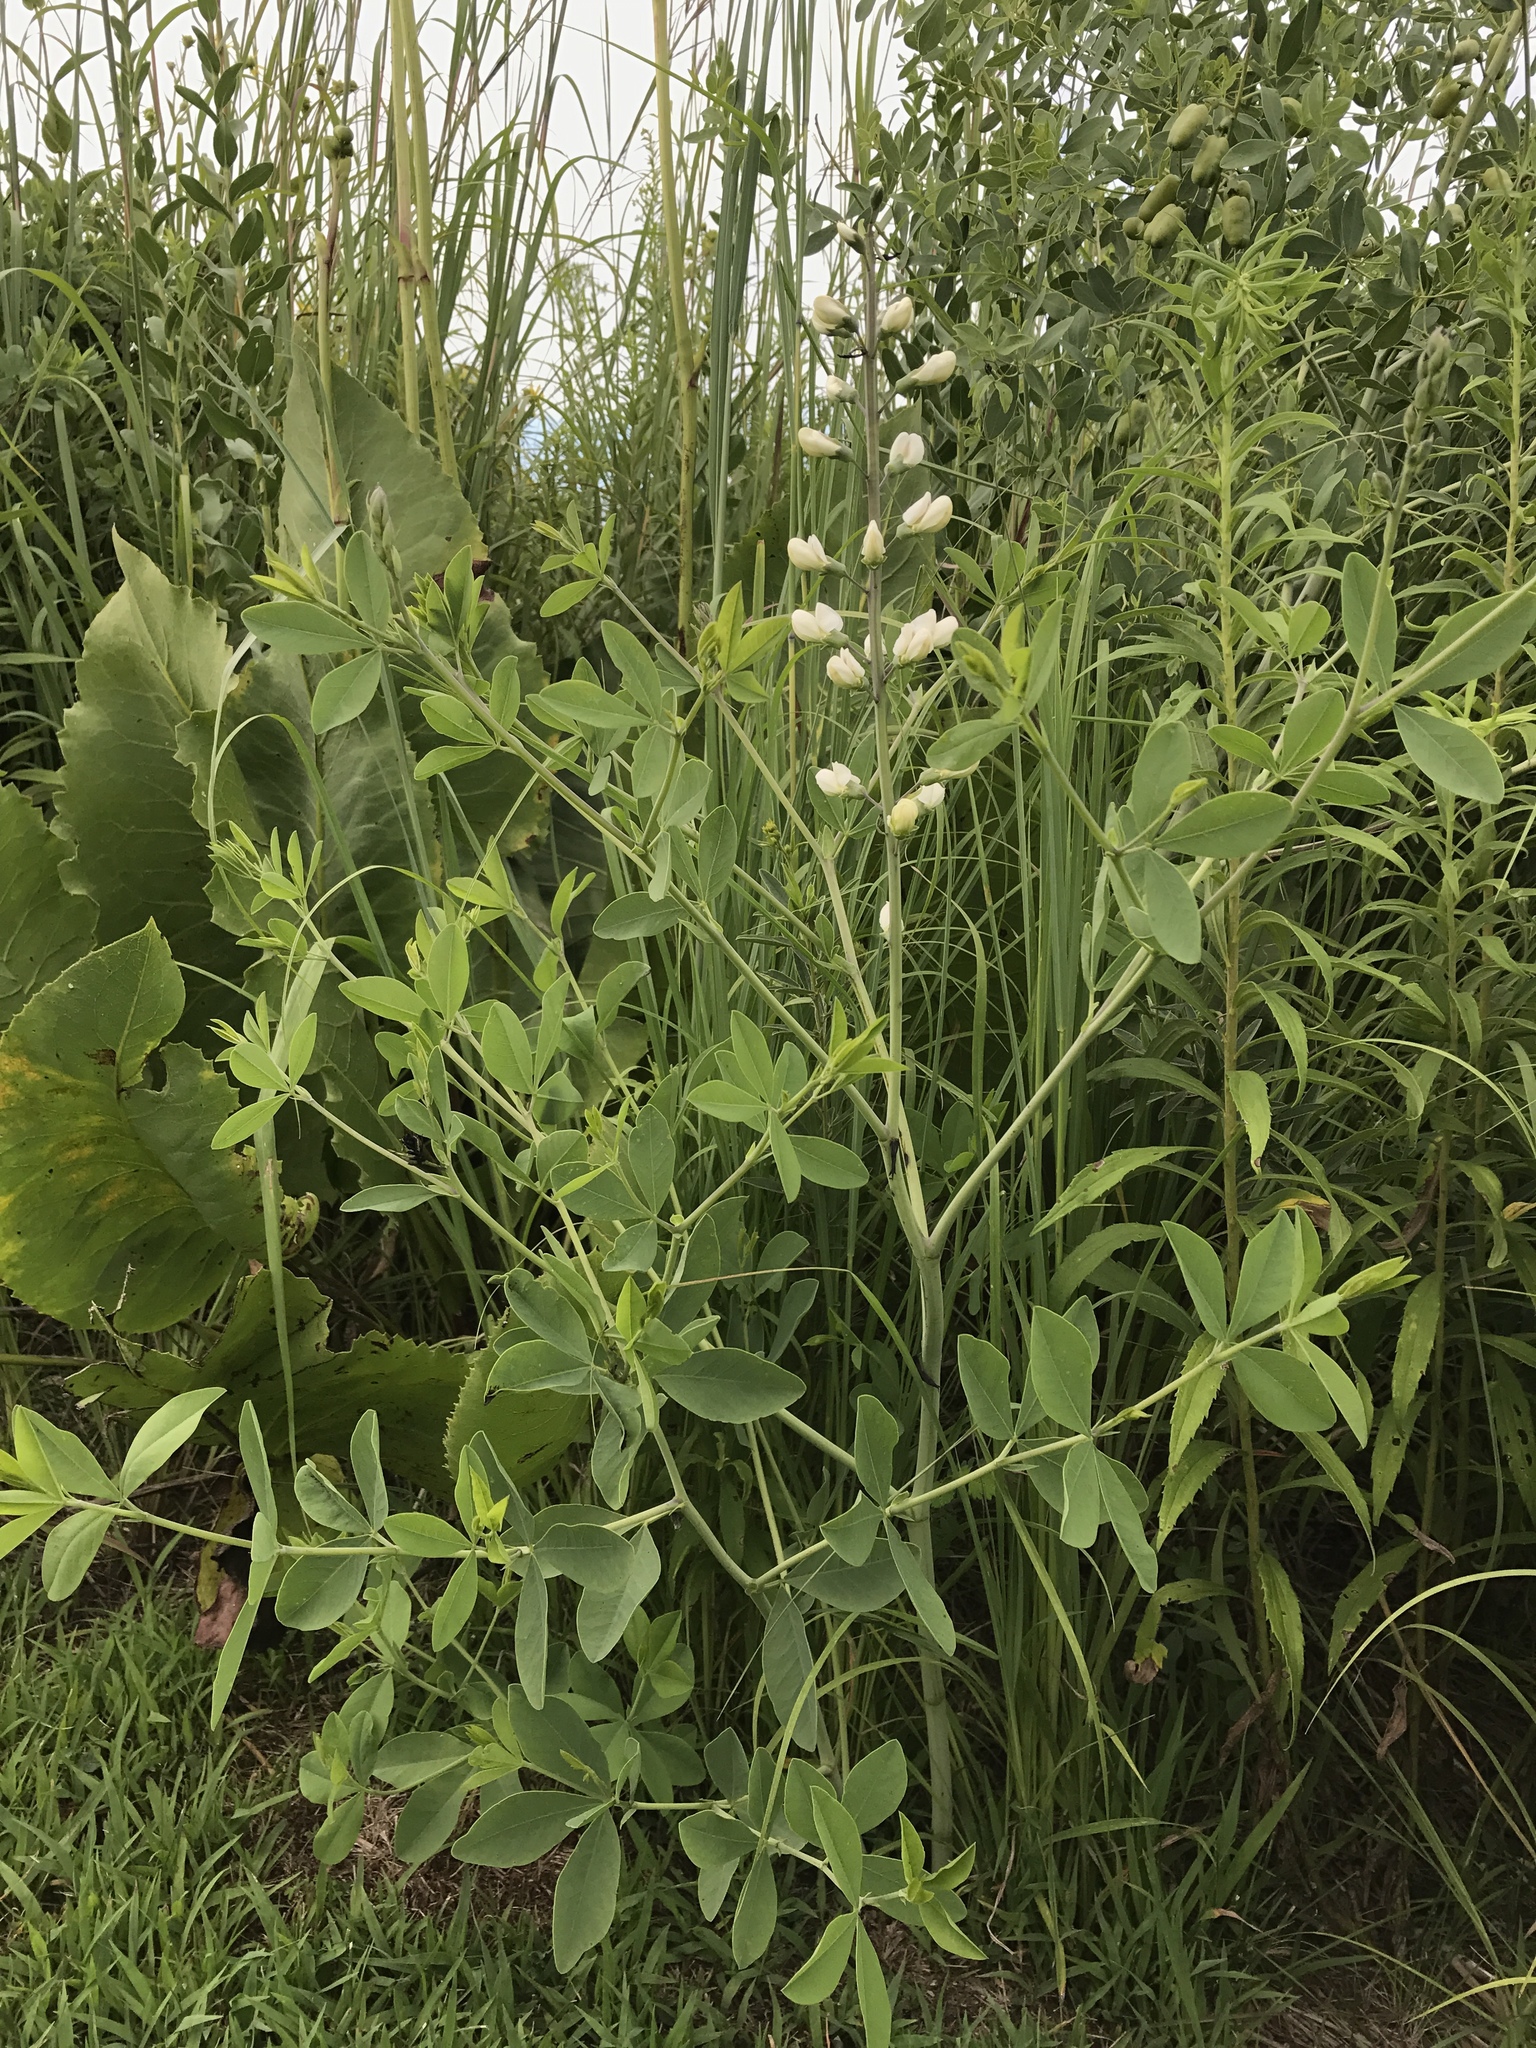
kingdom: Plantae
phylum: Tracheophyta
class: Magnoliopsida
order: Fabales
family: Fabaceae
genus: Baptisia
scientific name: Baptisia alba
